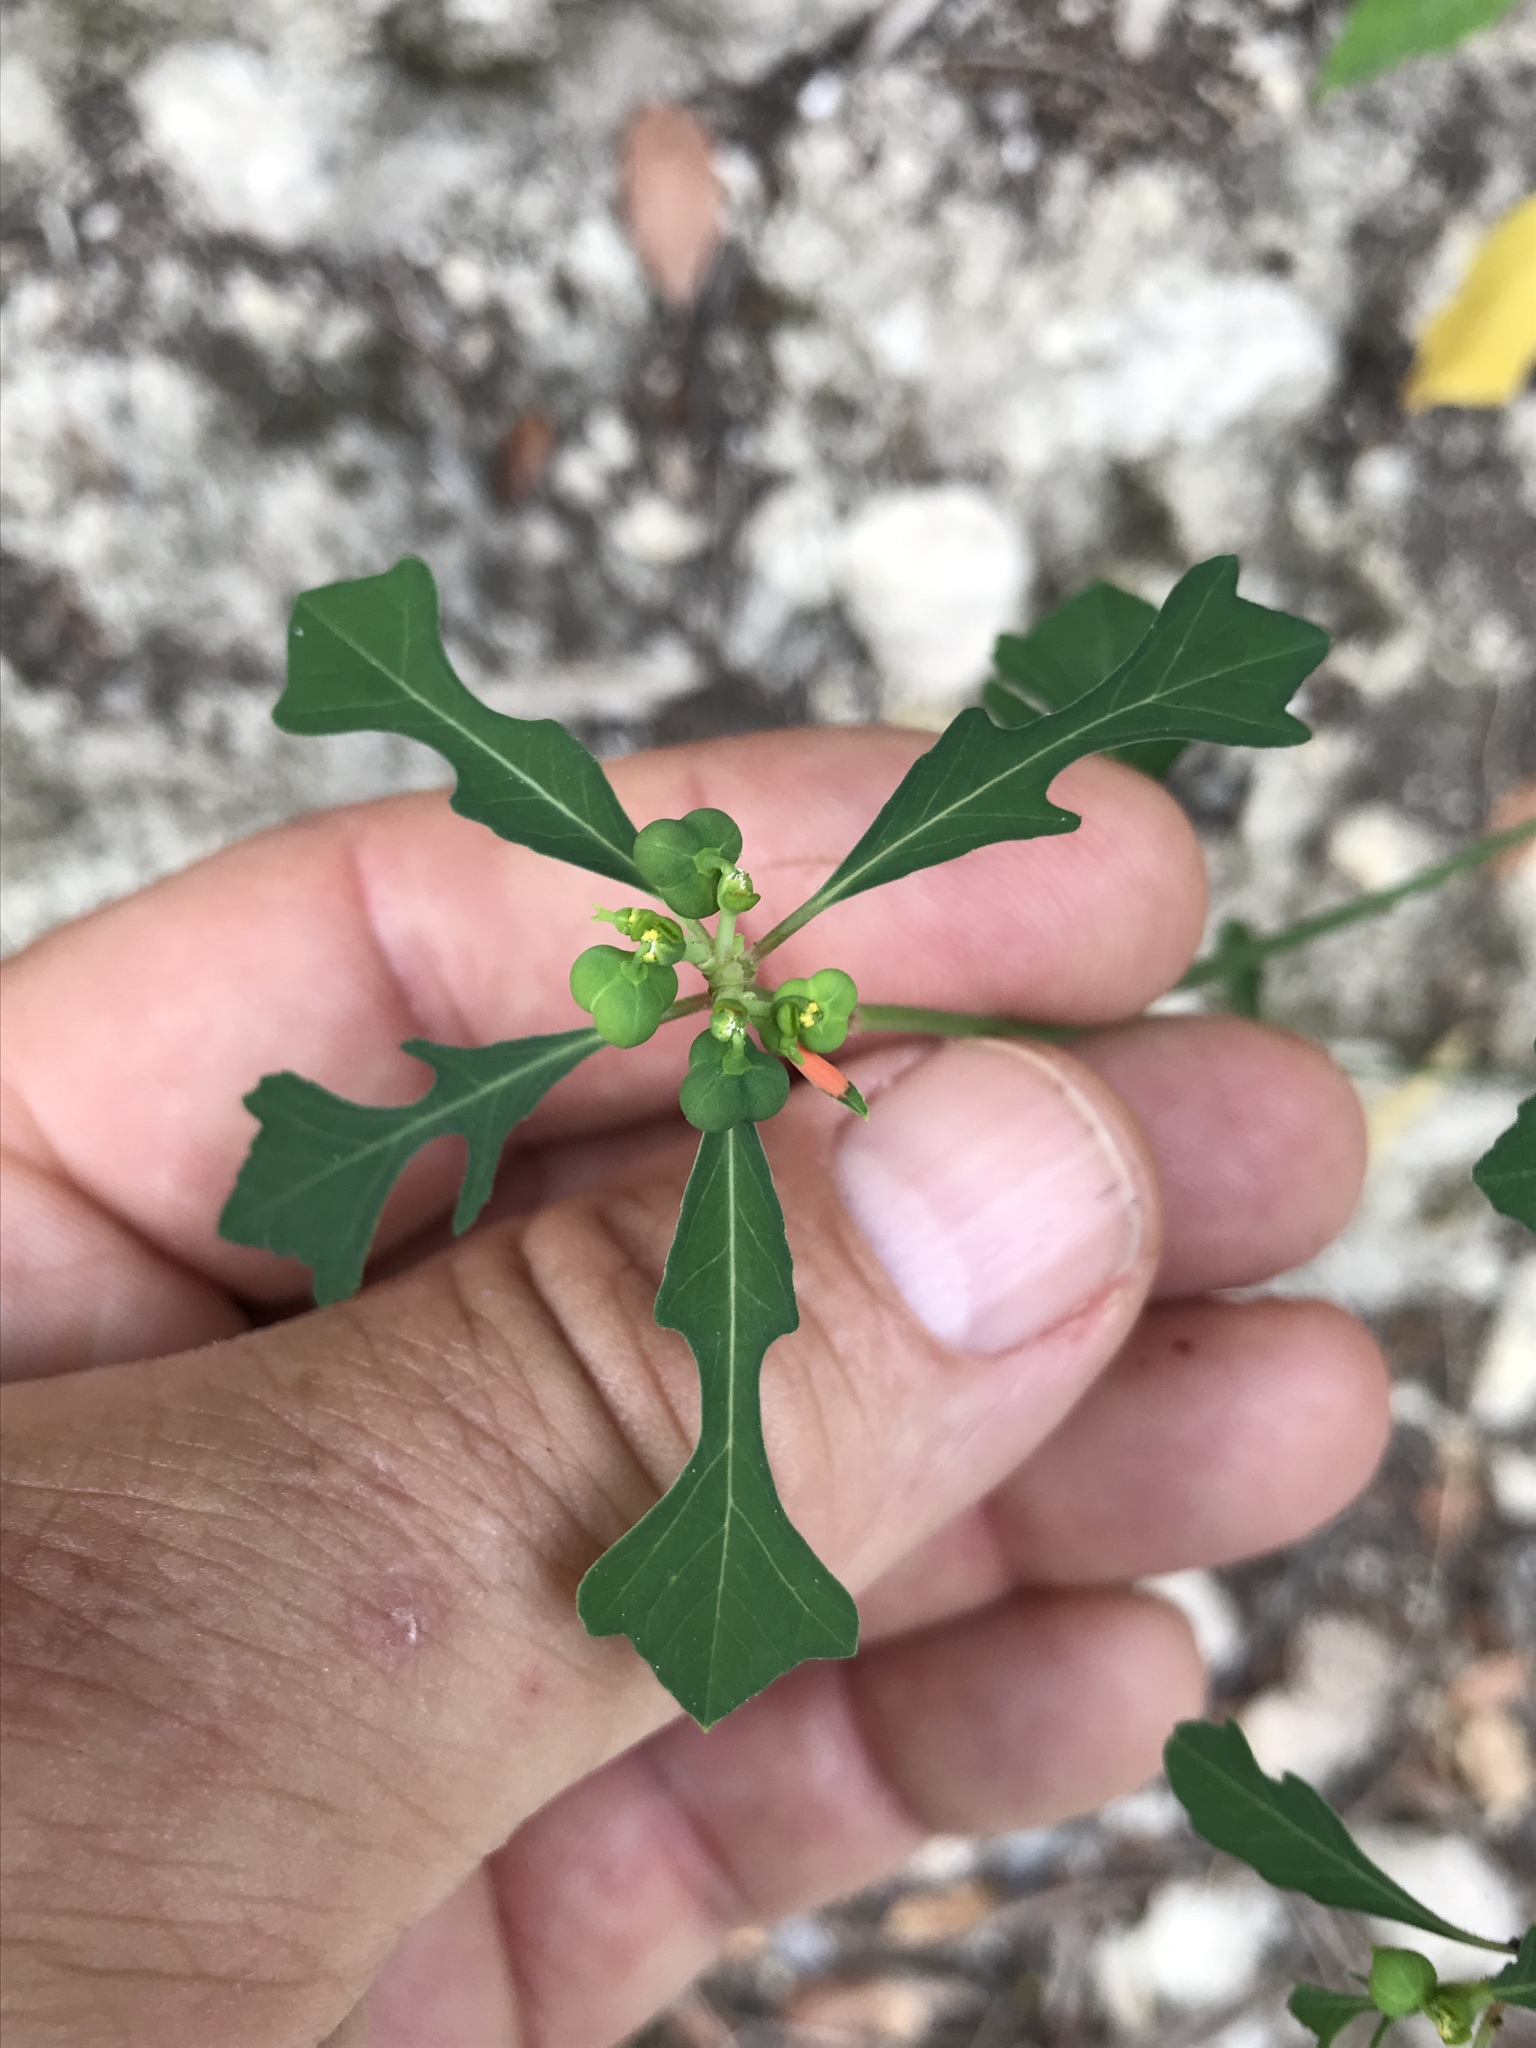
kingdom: Plantae
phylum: Tracheophyta
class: Magnoliopsida
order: Malpighiales
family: Euphorbiaceae
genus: Euphorbia
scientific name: Euphorbia heterophylla
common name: Mexican fireplant
